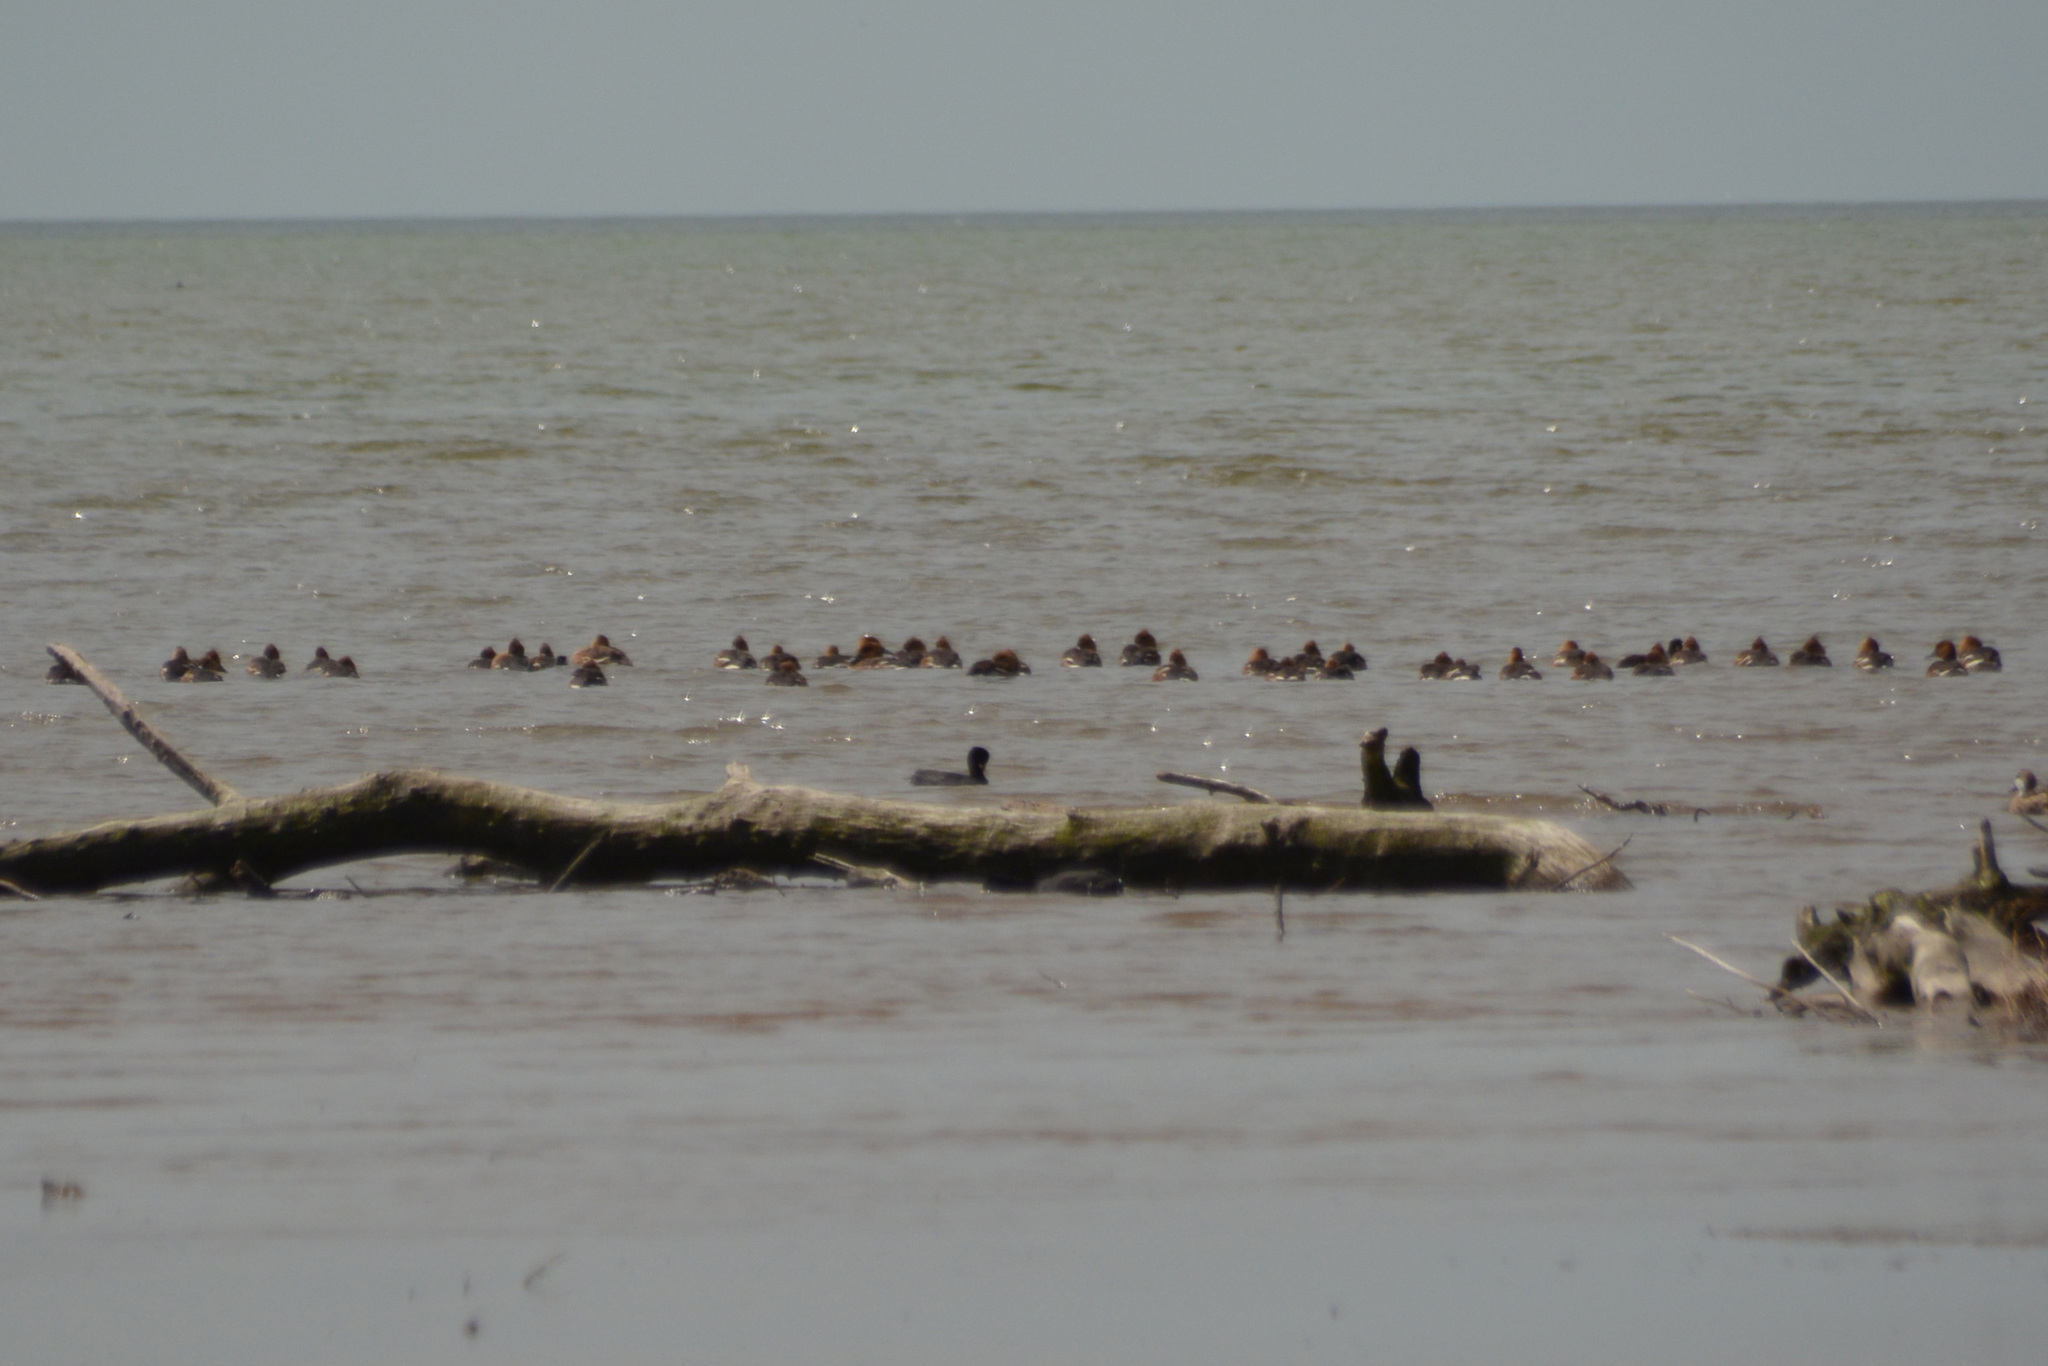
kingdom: Animalia
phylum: Chordata
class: Aves
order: Anseriformes
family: Anatidae
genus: Dendrocygna
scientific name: Dendrocygna bicolor
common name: Fulvous whistling duck
